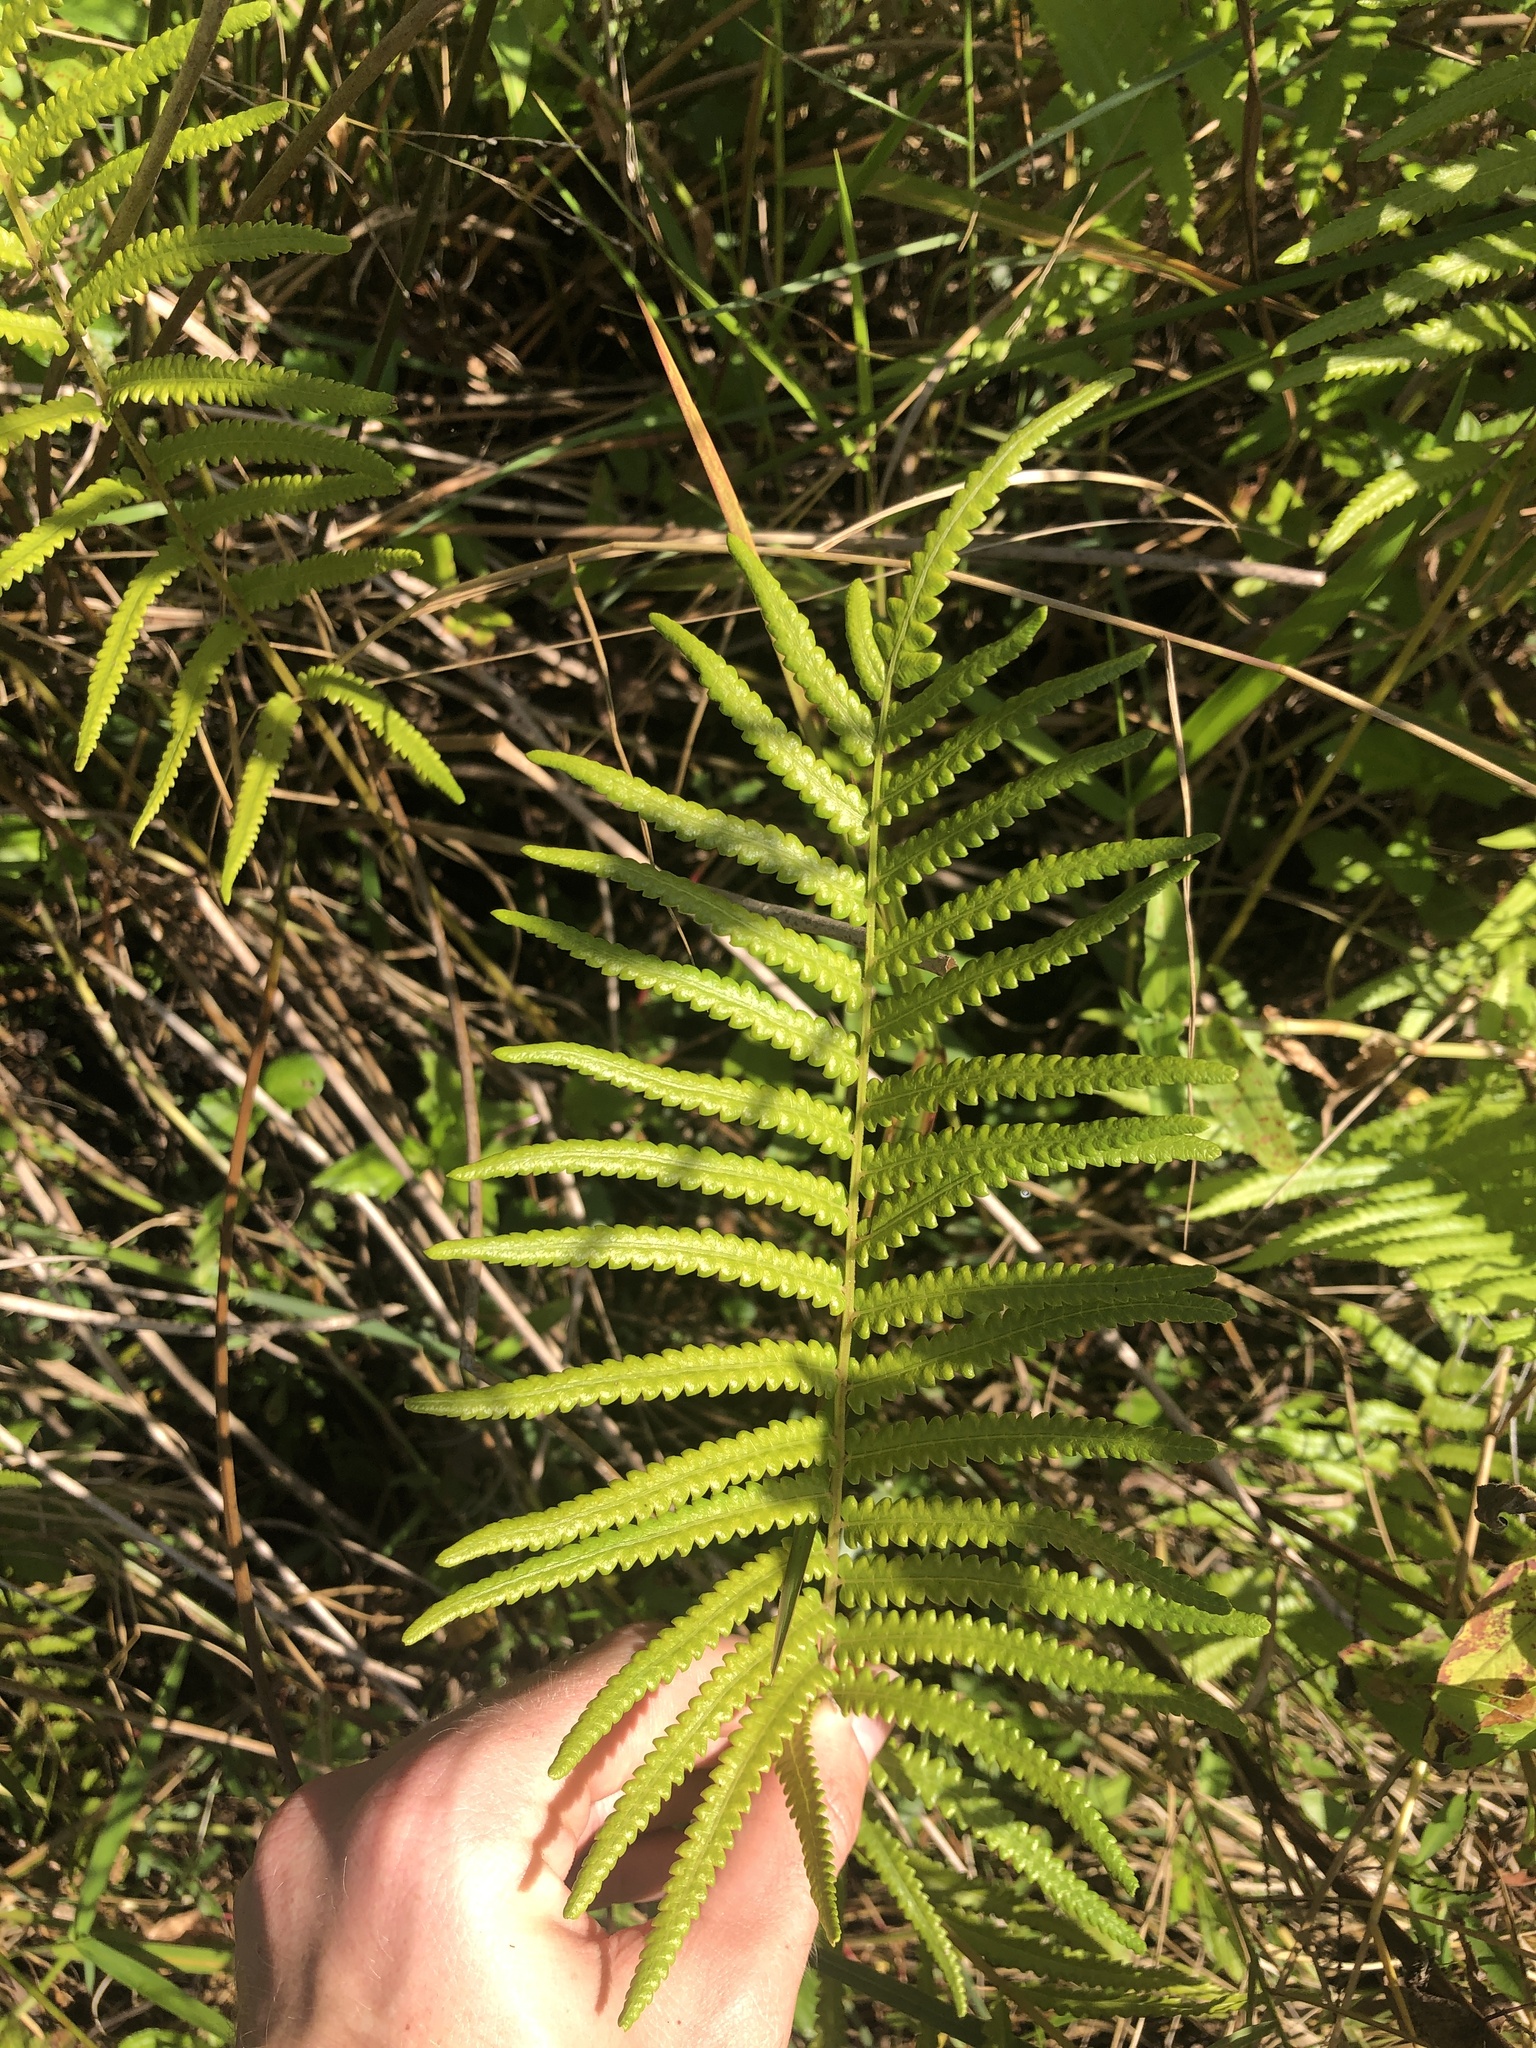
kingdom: Plantae
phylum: Tracheophyta
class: Polypodiopsida
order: Polypodiales
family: Thelypteridaceae
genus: Cyclosorus
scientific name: Cyclosorus interruptus
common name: Neke fern
